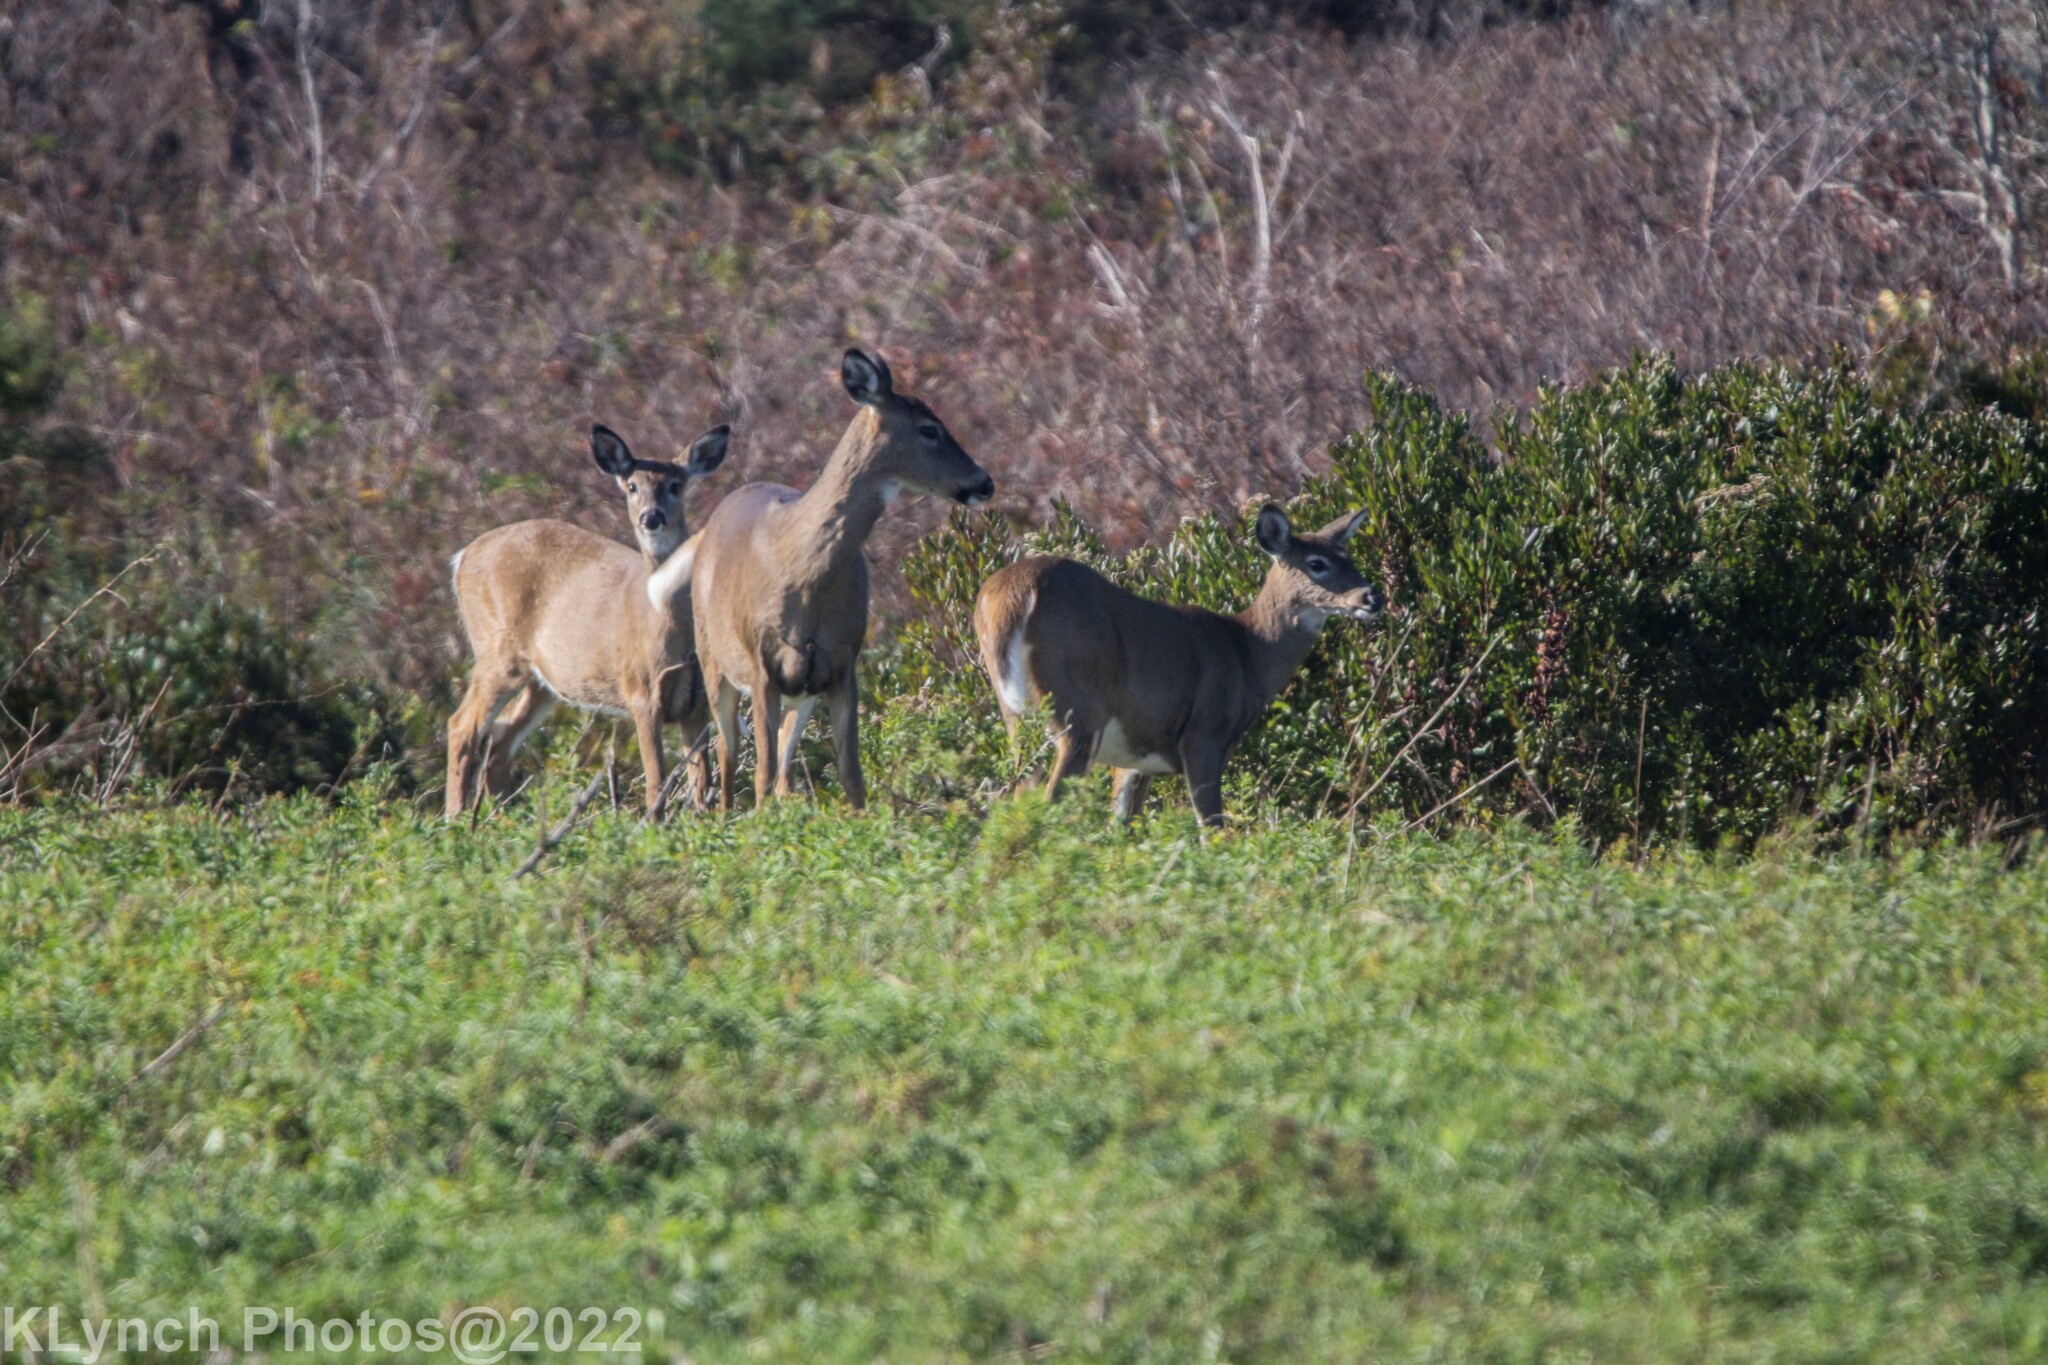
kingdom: Animalia
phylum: Chordata
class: Mammalia
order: Artiodactyla
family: Cervidae
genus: Odocoileus
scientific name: Odocoileus virginianus
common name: White-tailed deer
